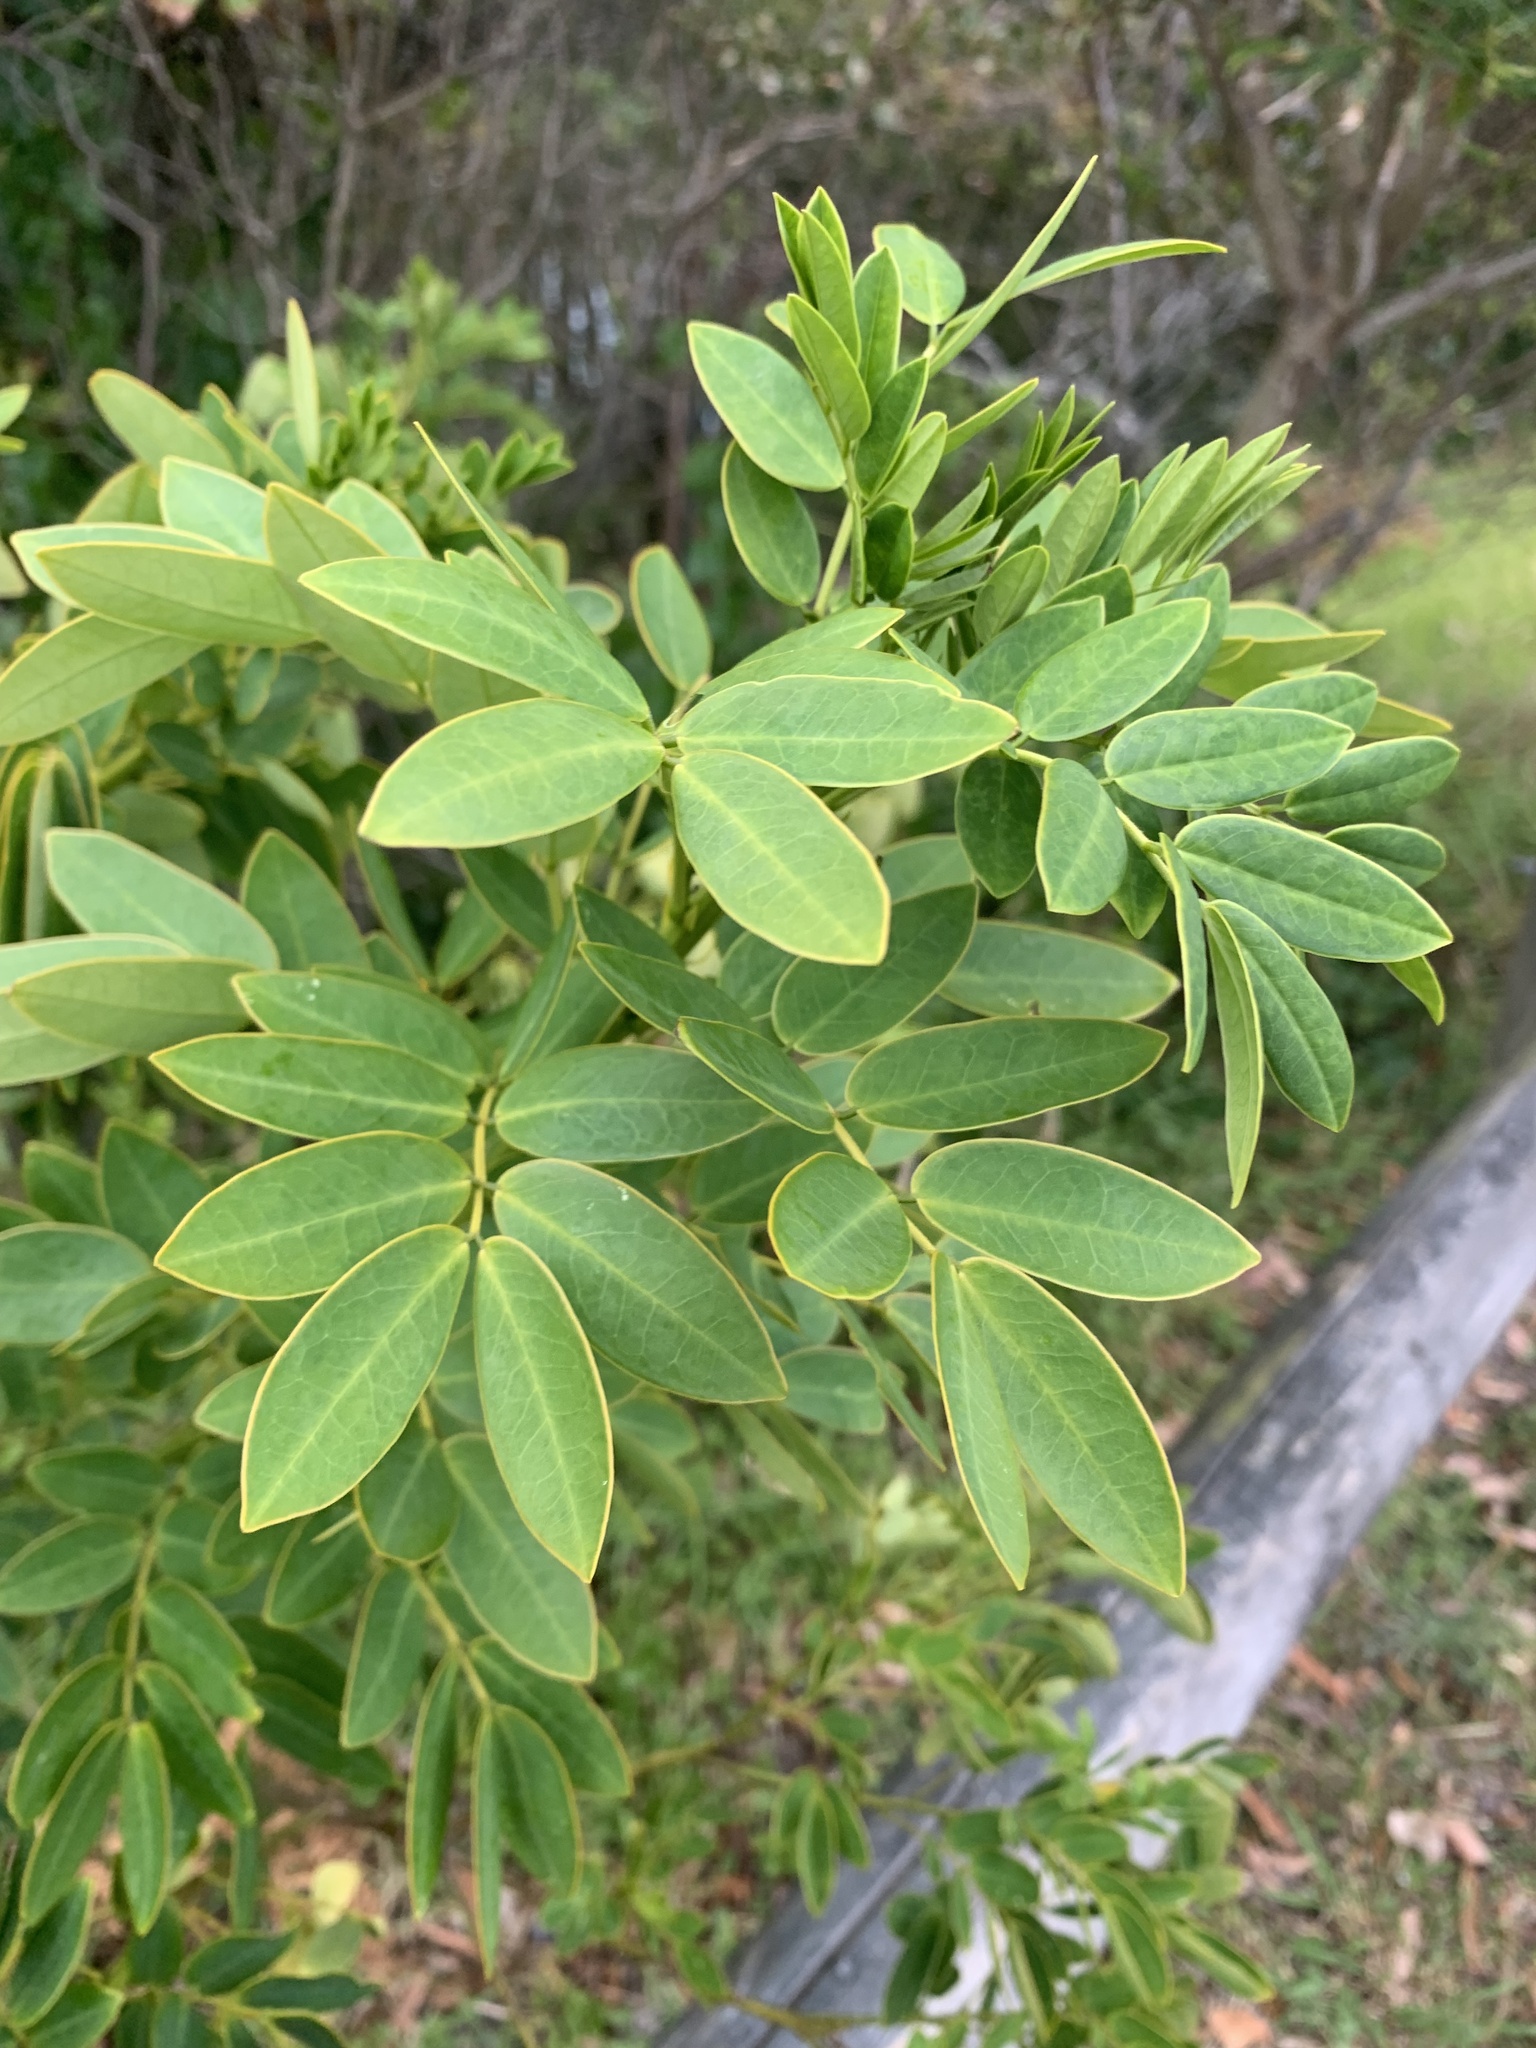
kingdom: Plantae
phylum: Tracheophyta
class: Magnoliopsida
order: Fabales
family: Fabaceae
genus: Senna
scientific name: Senna pendula
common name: Easter cassia
